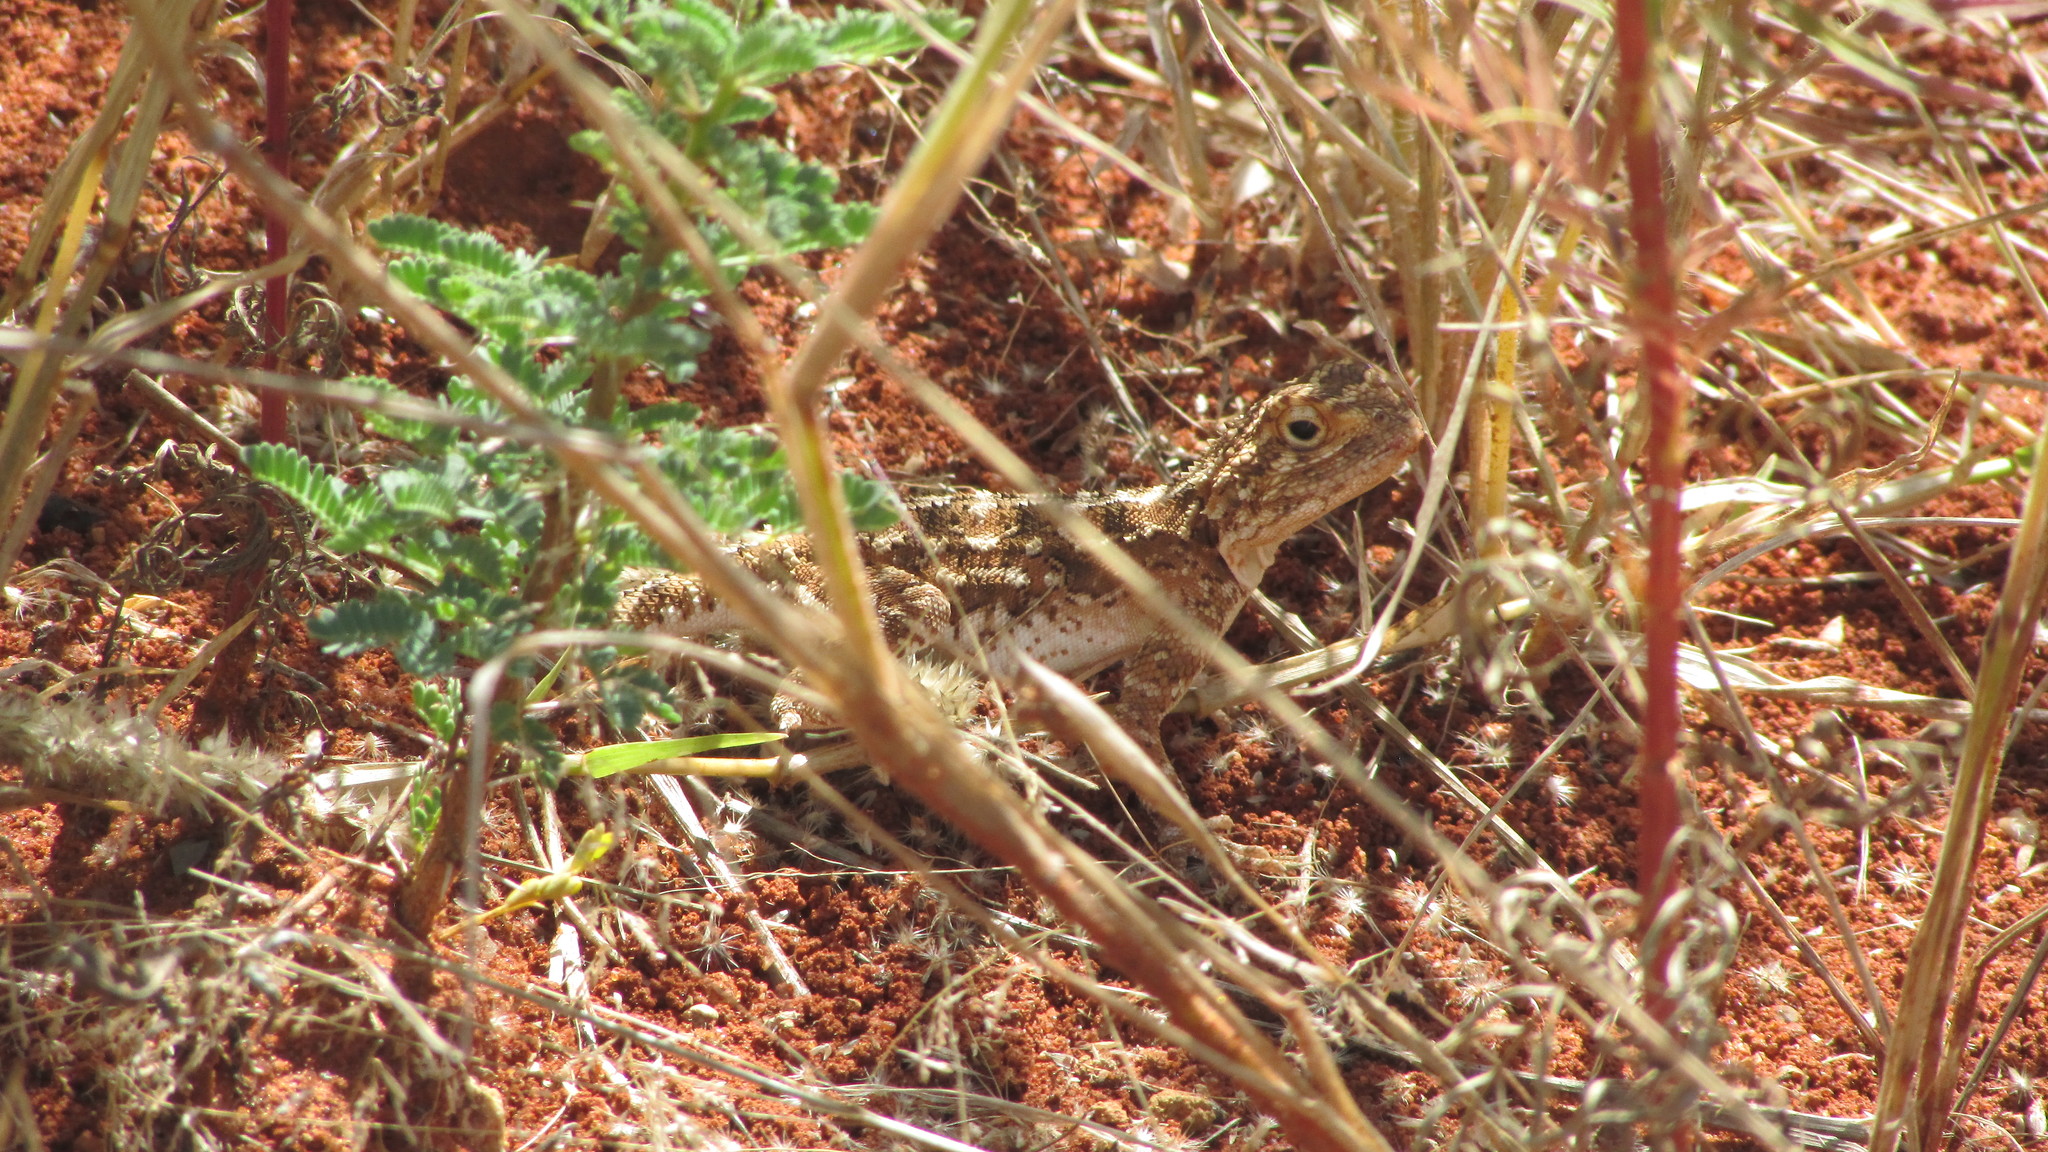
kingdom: Animalia
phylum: Chordata
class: Squamata
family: Agamidae
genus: Agama
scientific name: Agama aculeata
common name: Common ground agama
